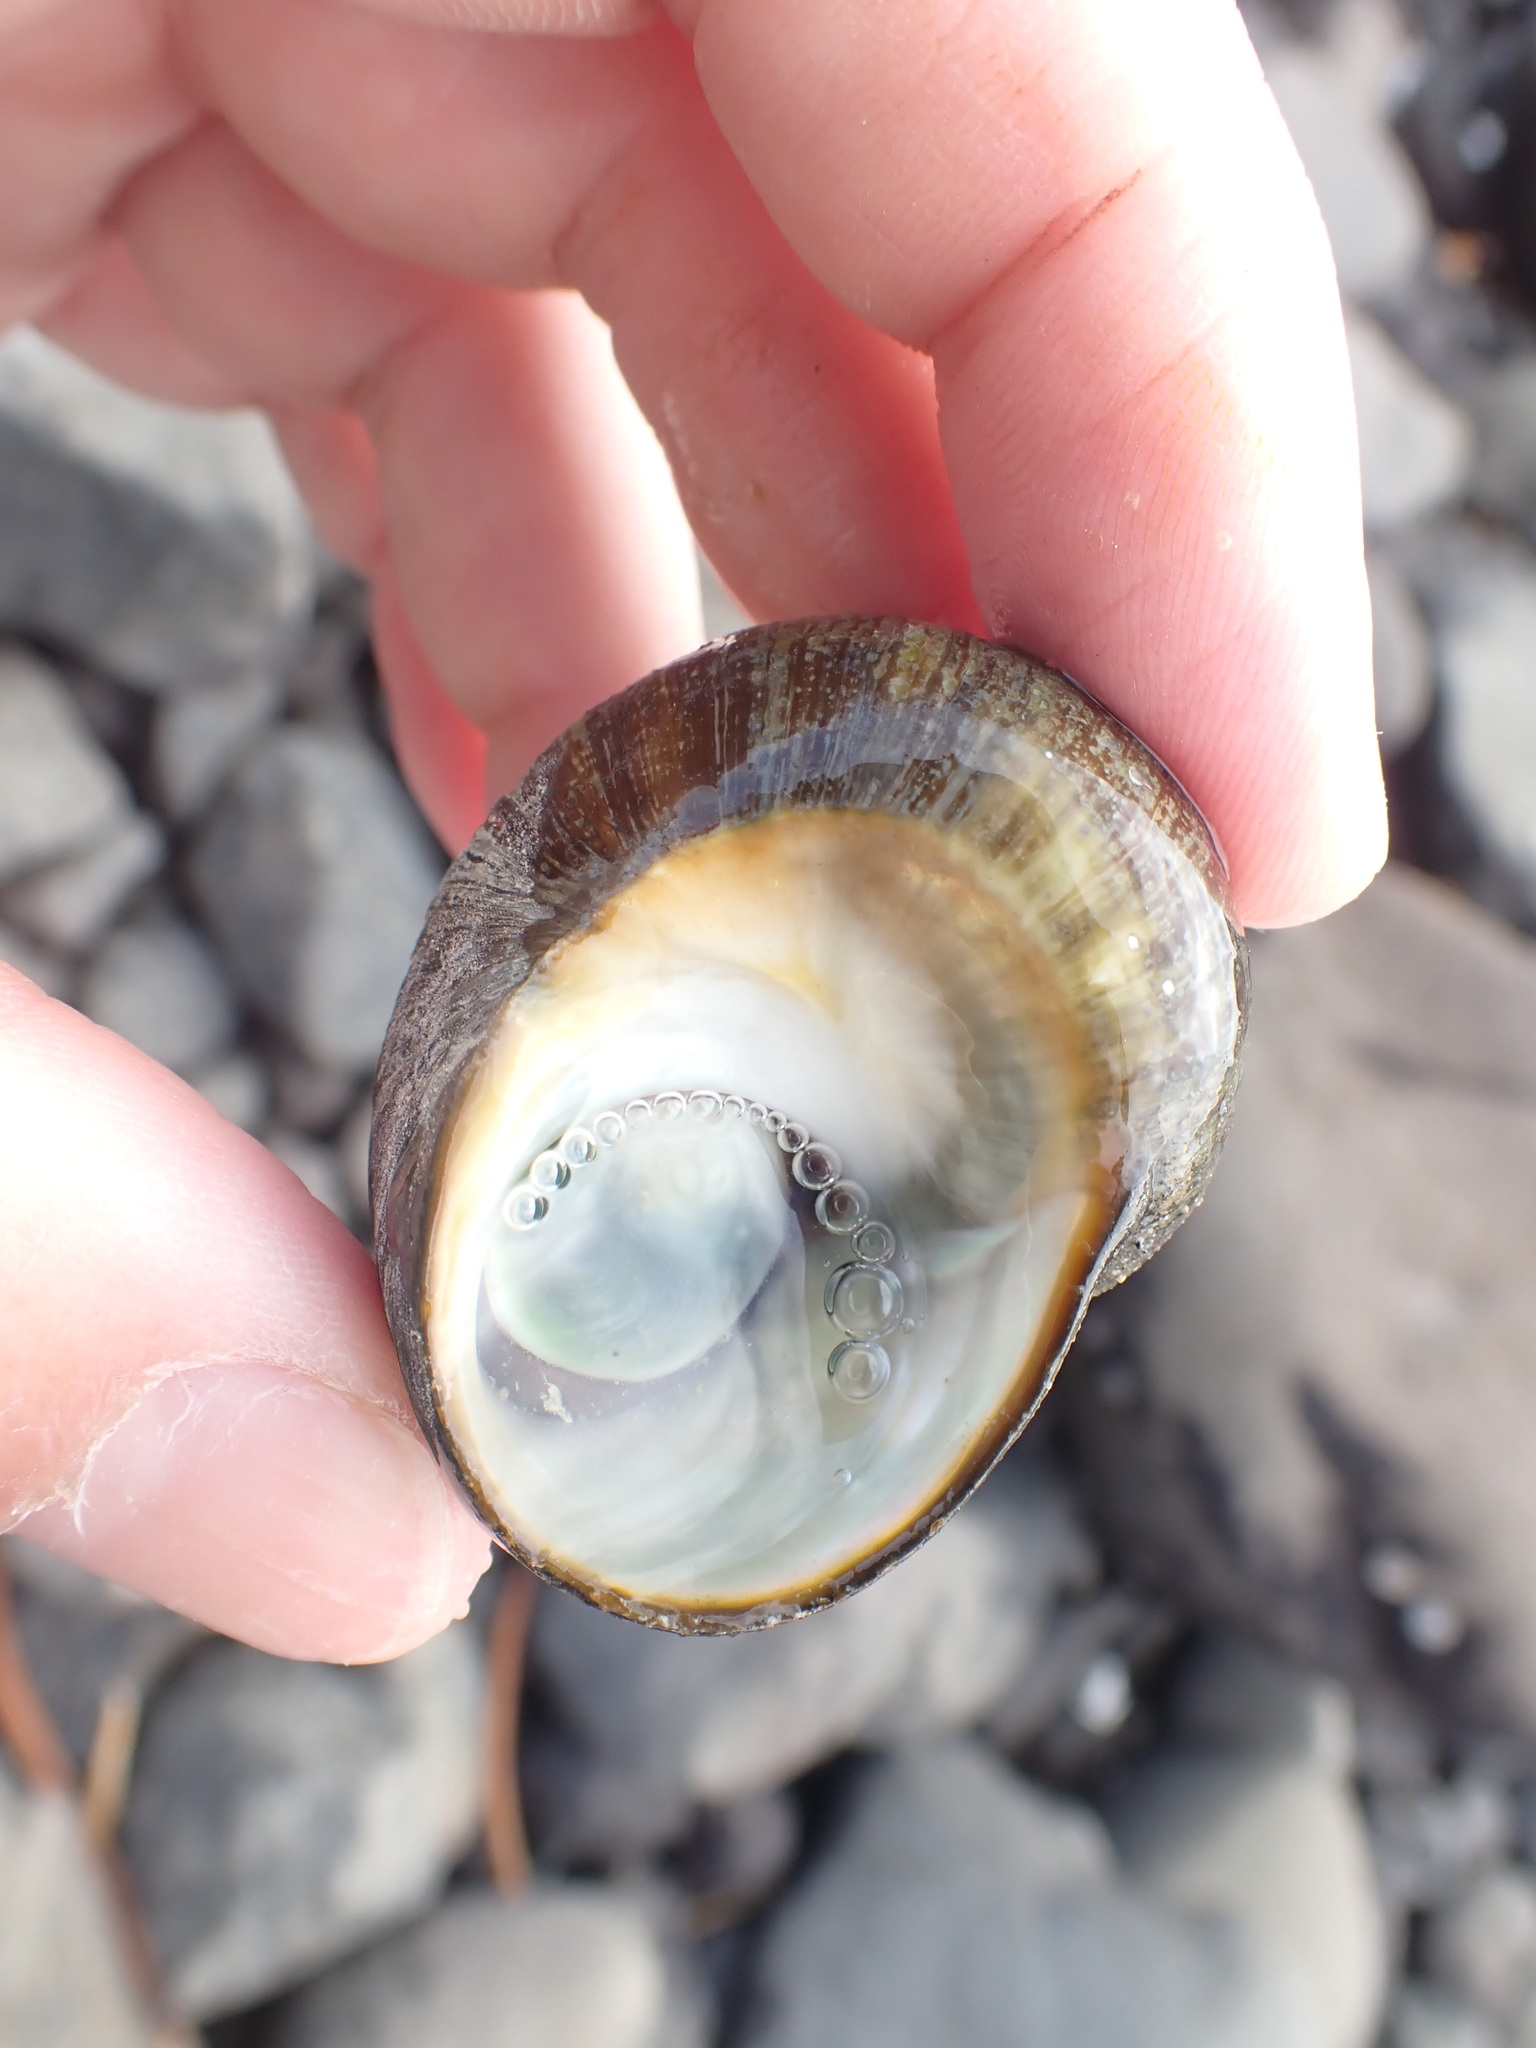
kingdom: Animalia
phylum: Mollusca
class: Gastropoda
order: Trochida
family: Turbinidae
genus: Lunella
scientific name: Lunella smaragda
